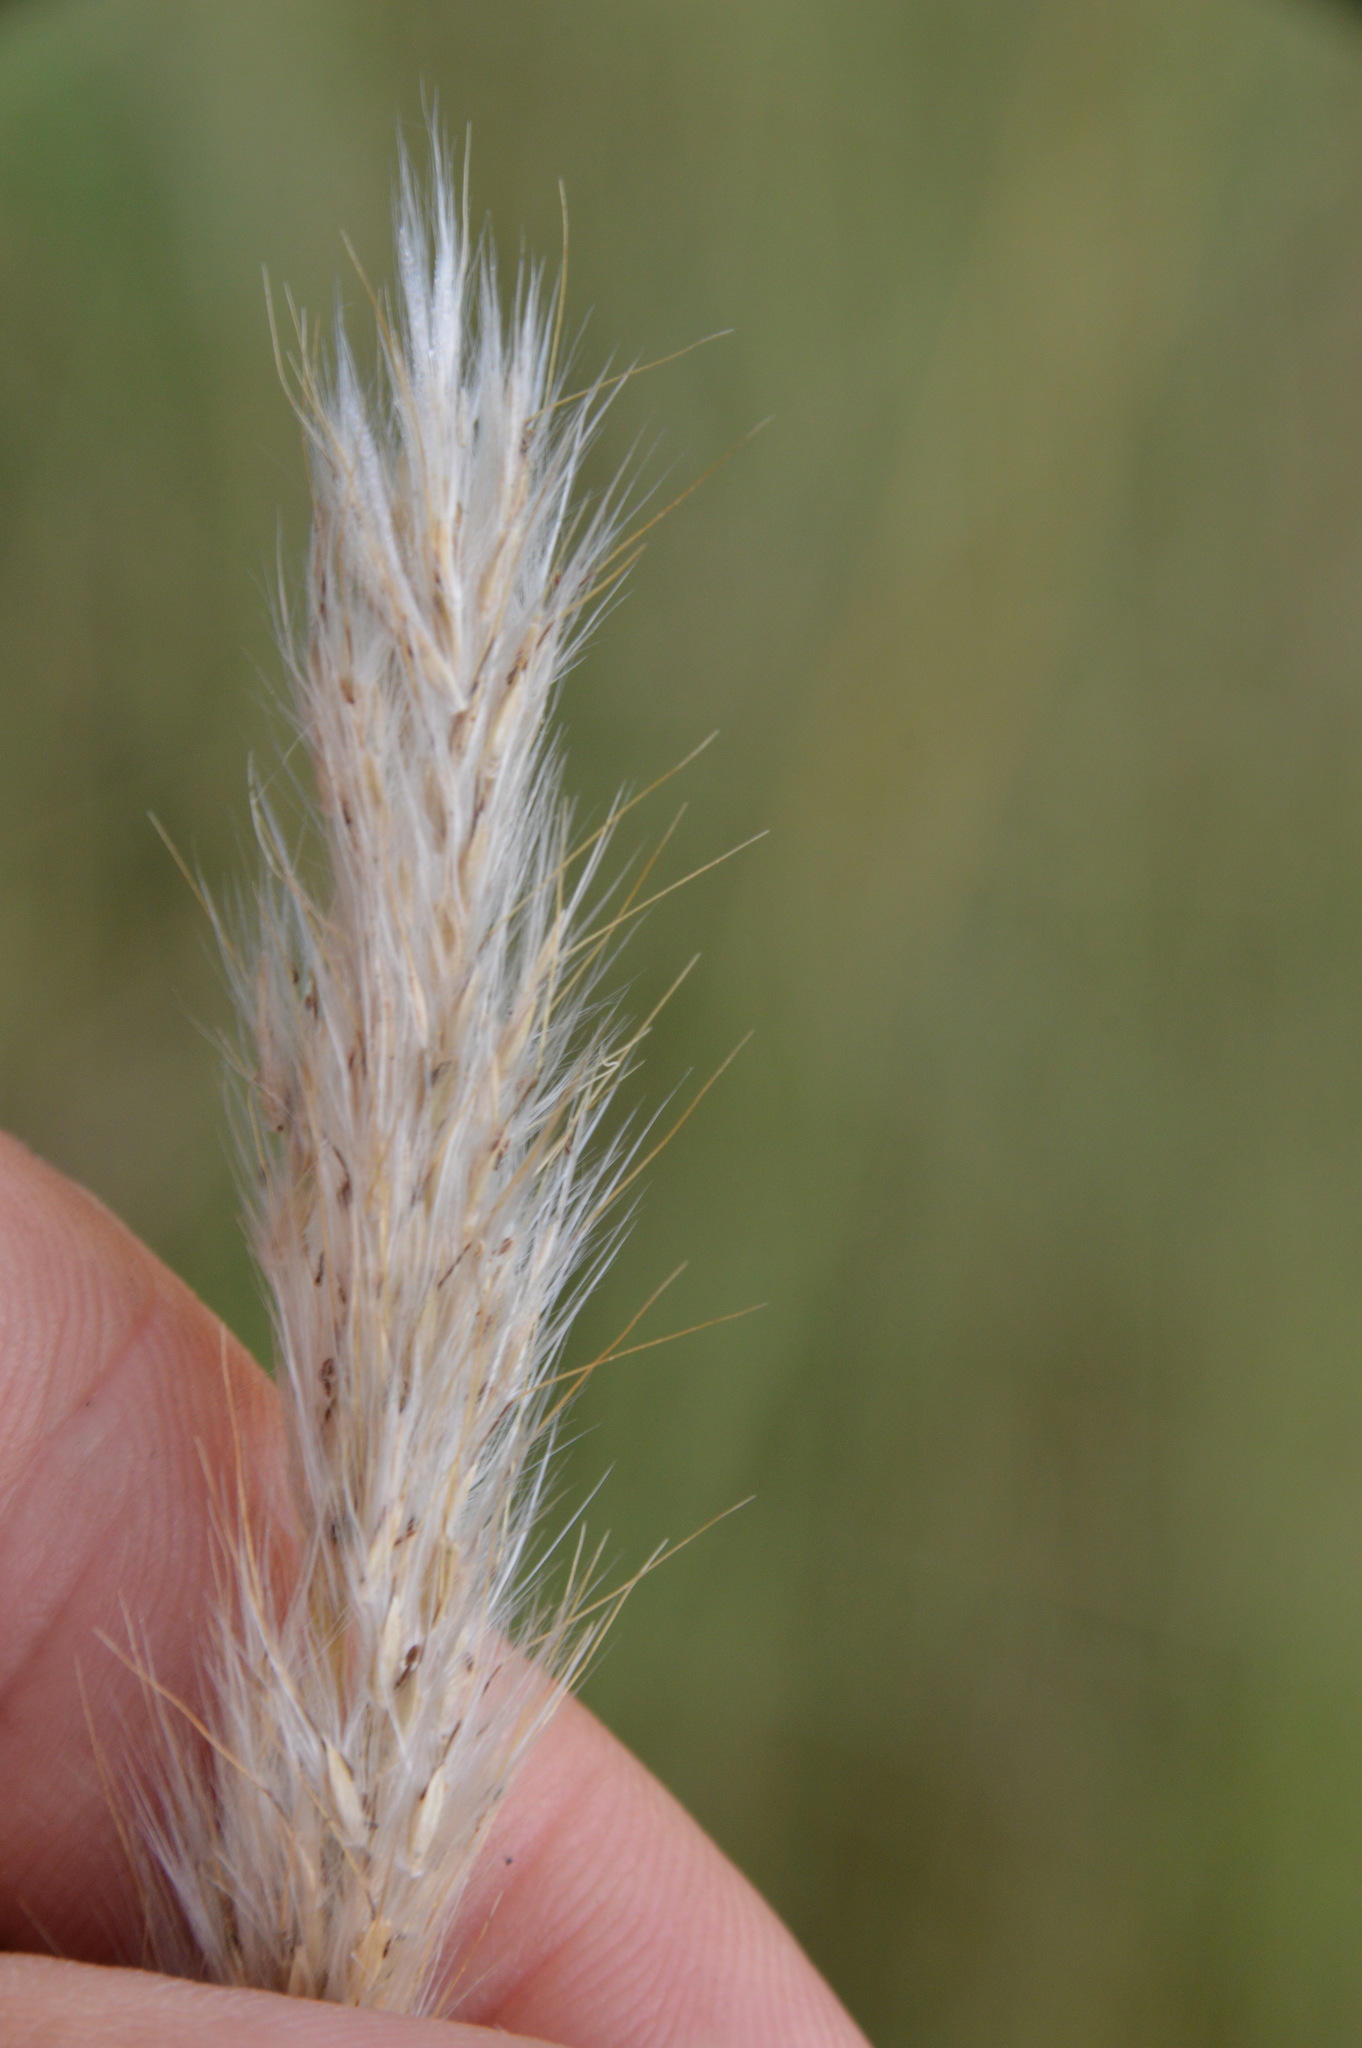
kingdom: Plantae
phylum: Tracheophyta
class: Liliopsida
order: Poales
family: Poaceae
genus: Bothriochloa
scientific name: Bothriochloa torreyana
